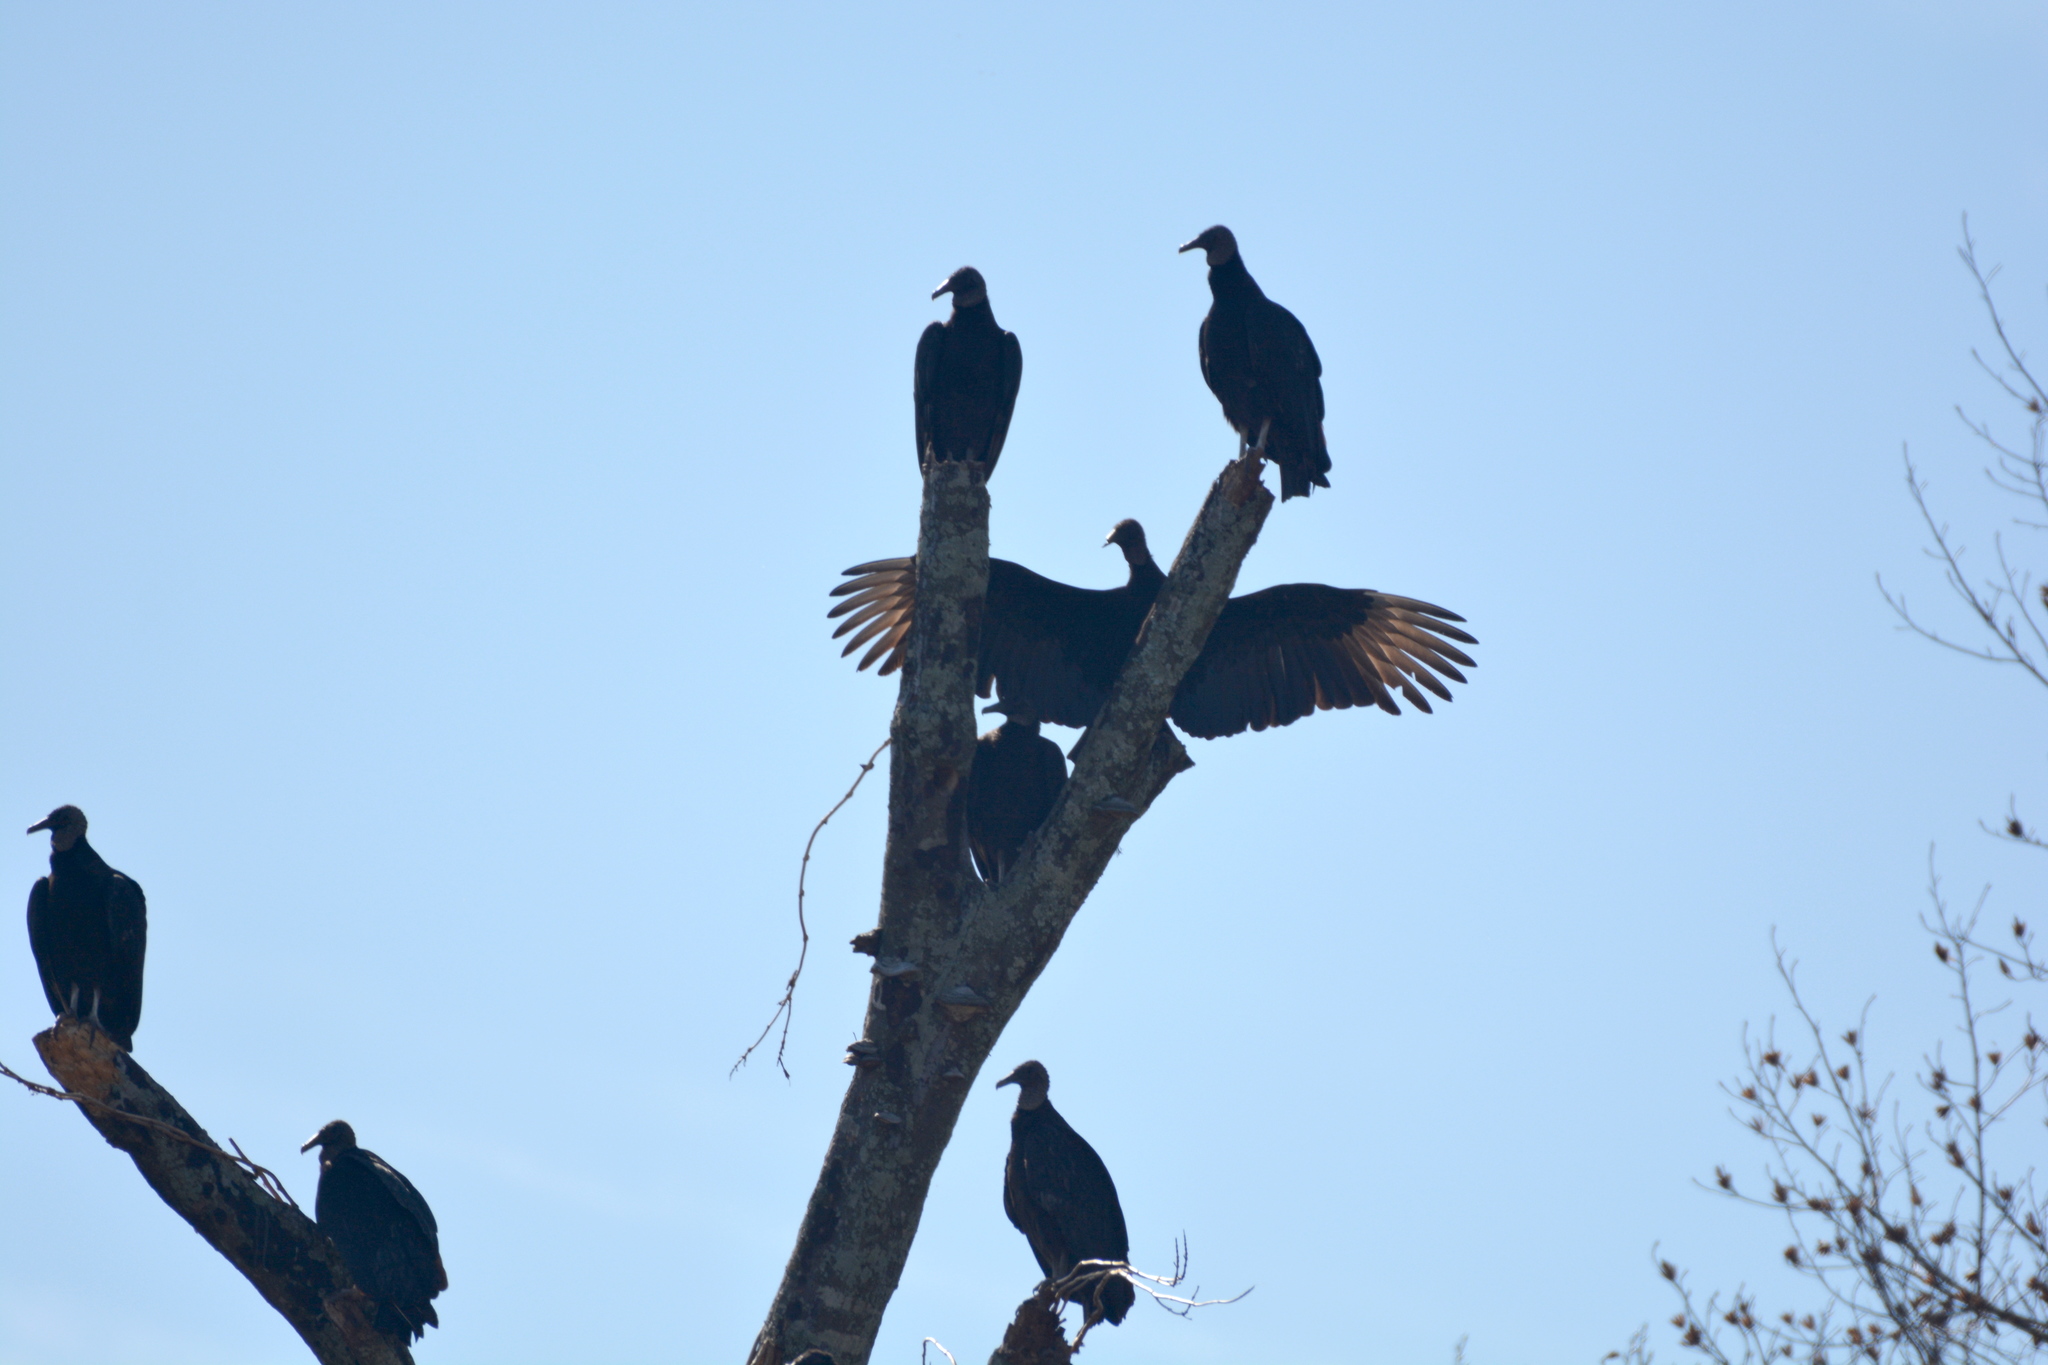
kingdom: Animalia
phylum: Chordata
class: Aves
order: Accipitriformes
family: Cathartidae
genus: Coragyps
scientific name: Coragyps atratus
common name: Black vulture
